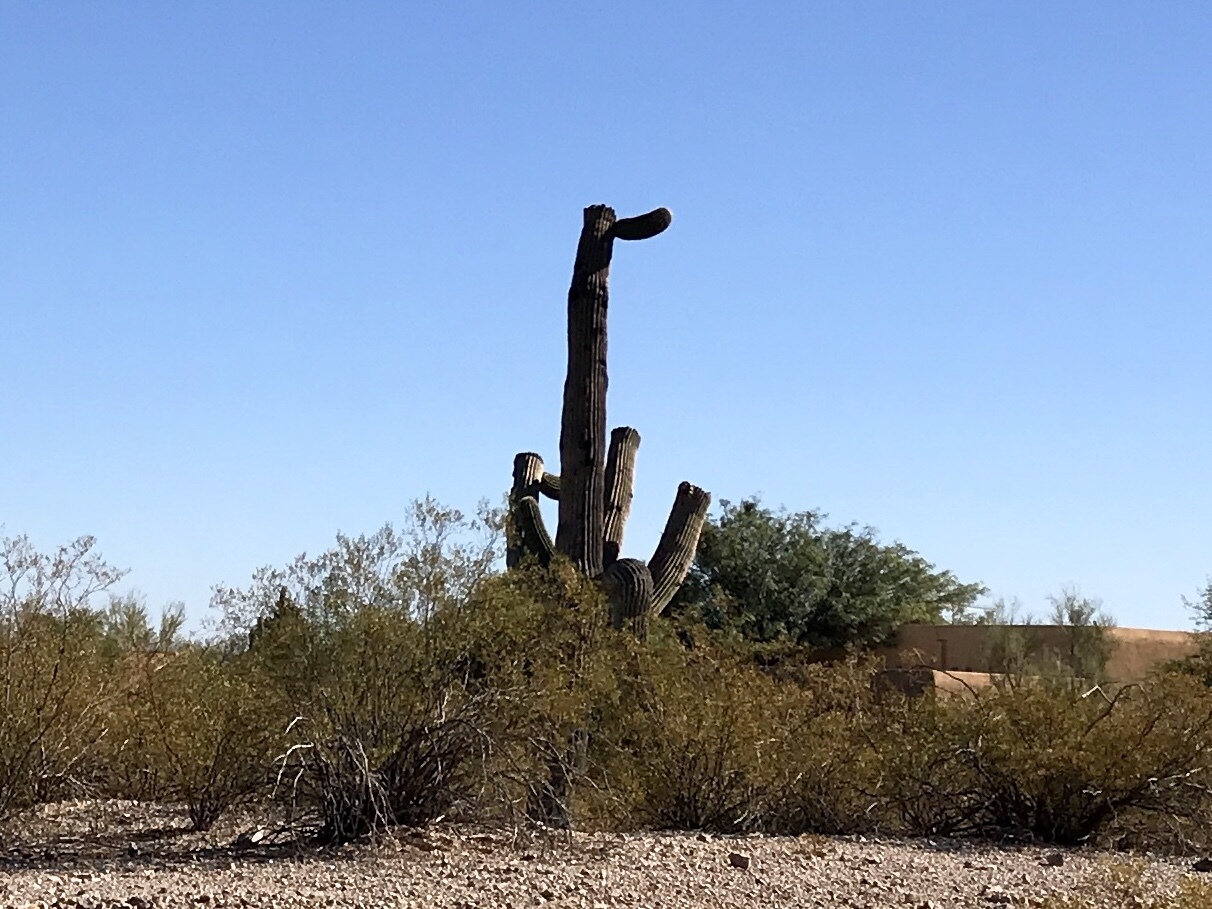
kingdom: Plantae
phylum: Tracheophyta
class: Magnoliopsida
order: Caryophyllales
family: Cactaceae
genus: Carnegiea
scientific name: Carnegiea gigantea
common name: Saguaro
